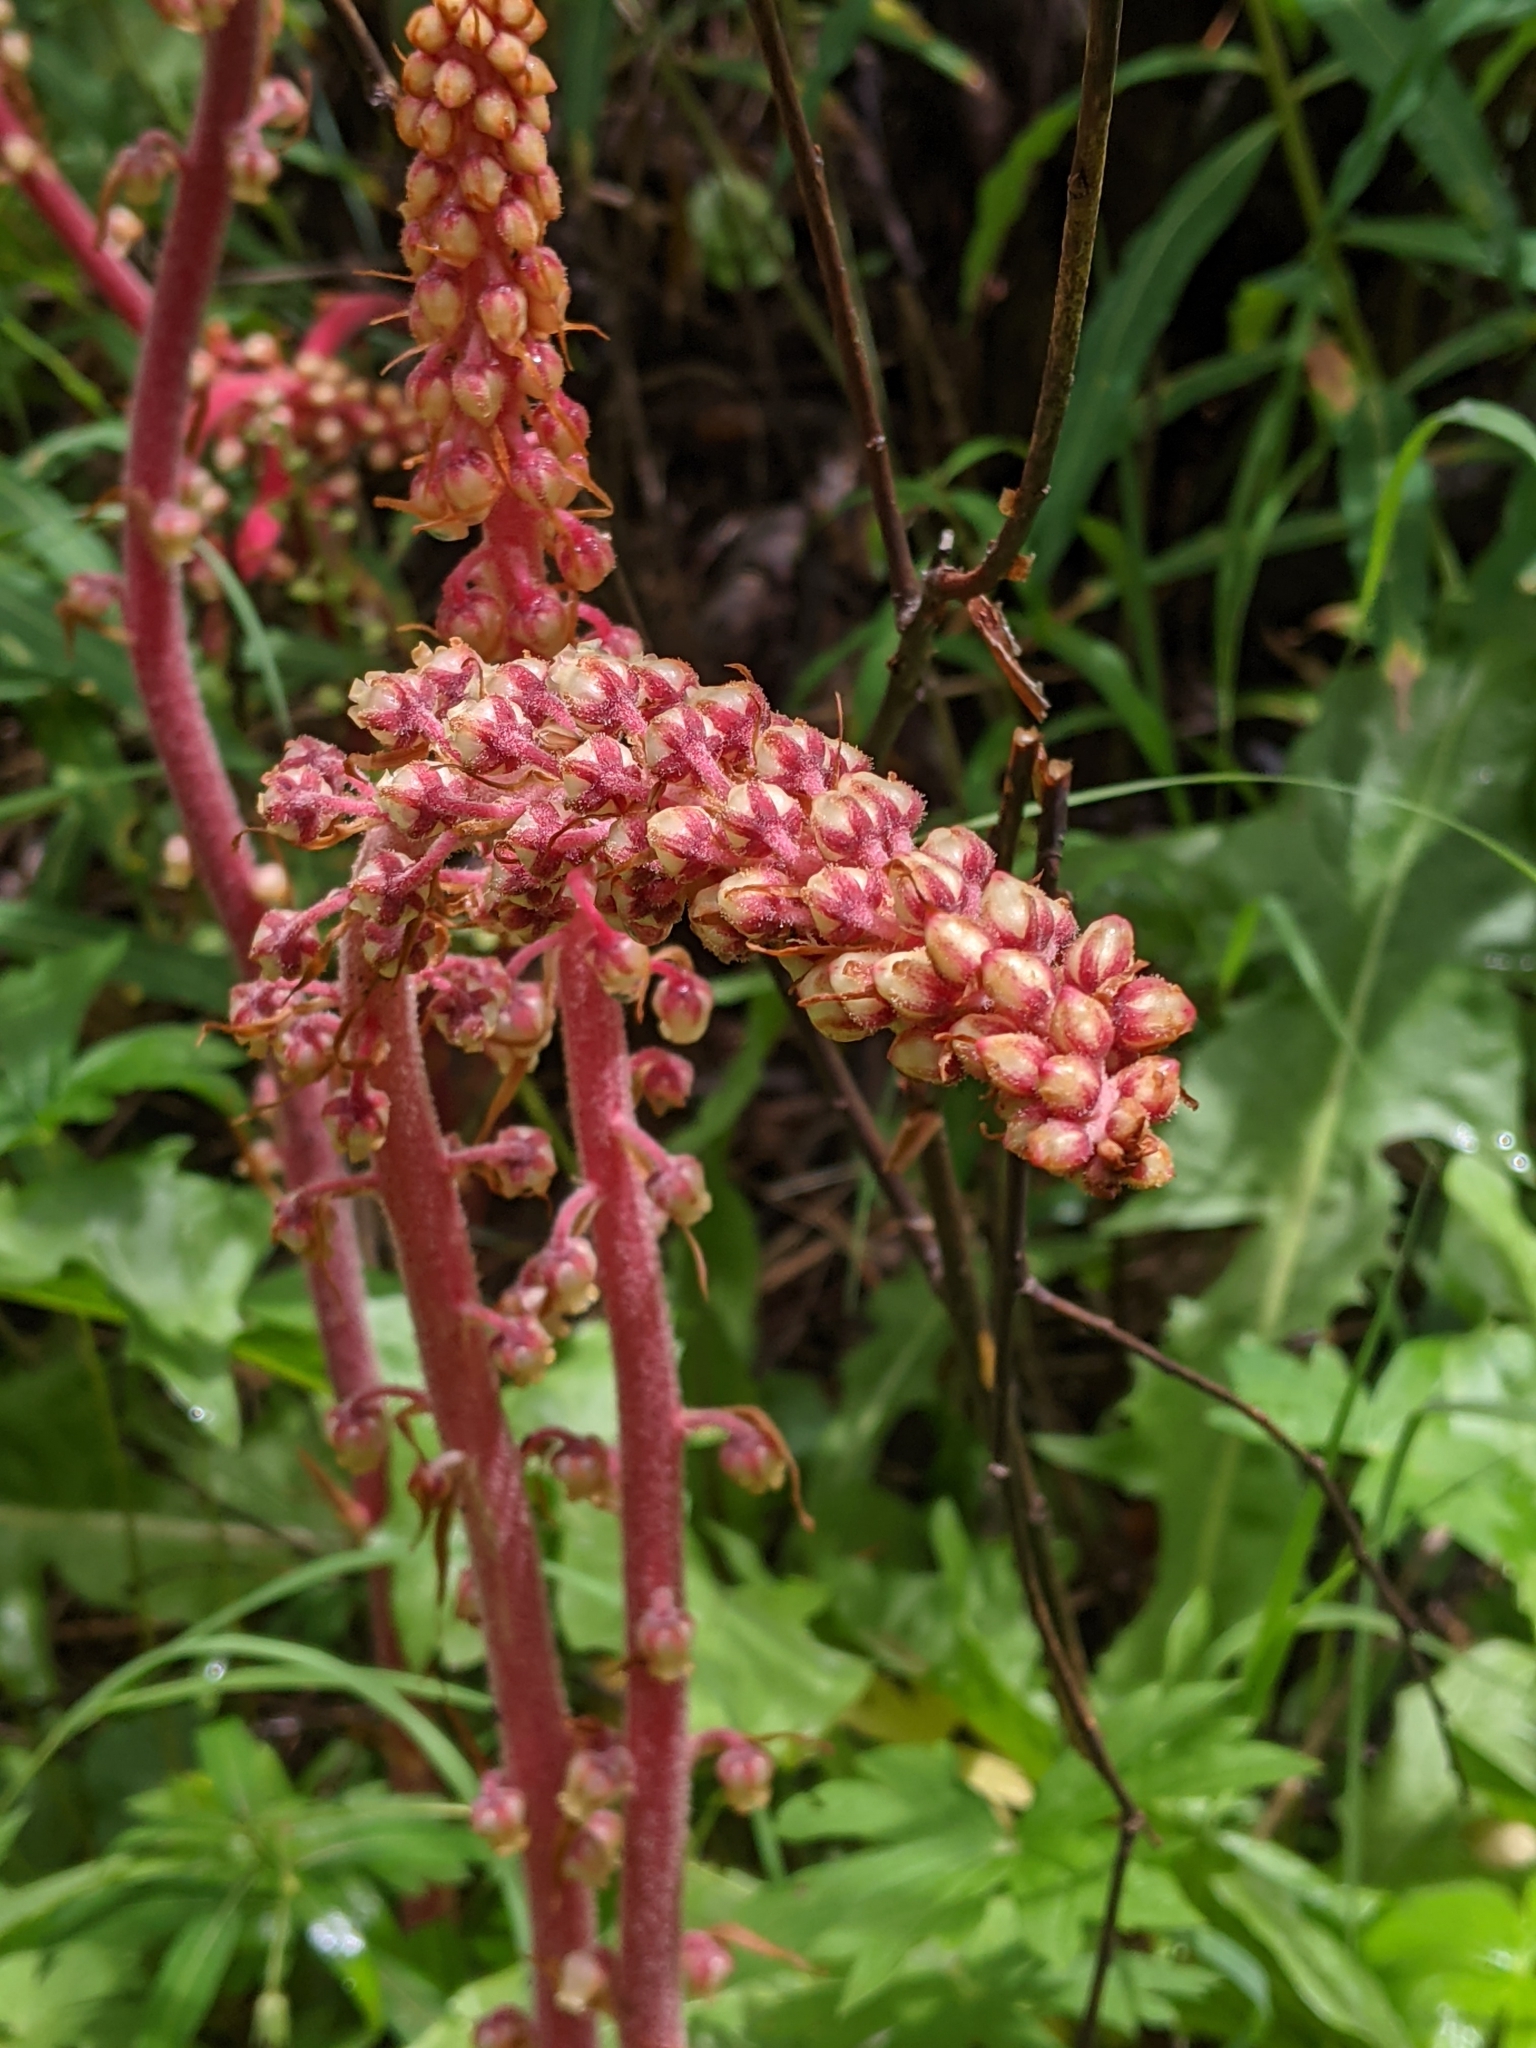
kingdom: Plantae
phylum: Tracheophyta
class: Magnoliopsida
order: Ericales
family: Ericaceae
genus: Pterospora
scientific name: Pterospora andromedea
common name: Giant bird's-nest
